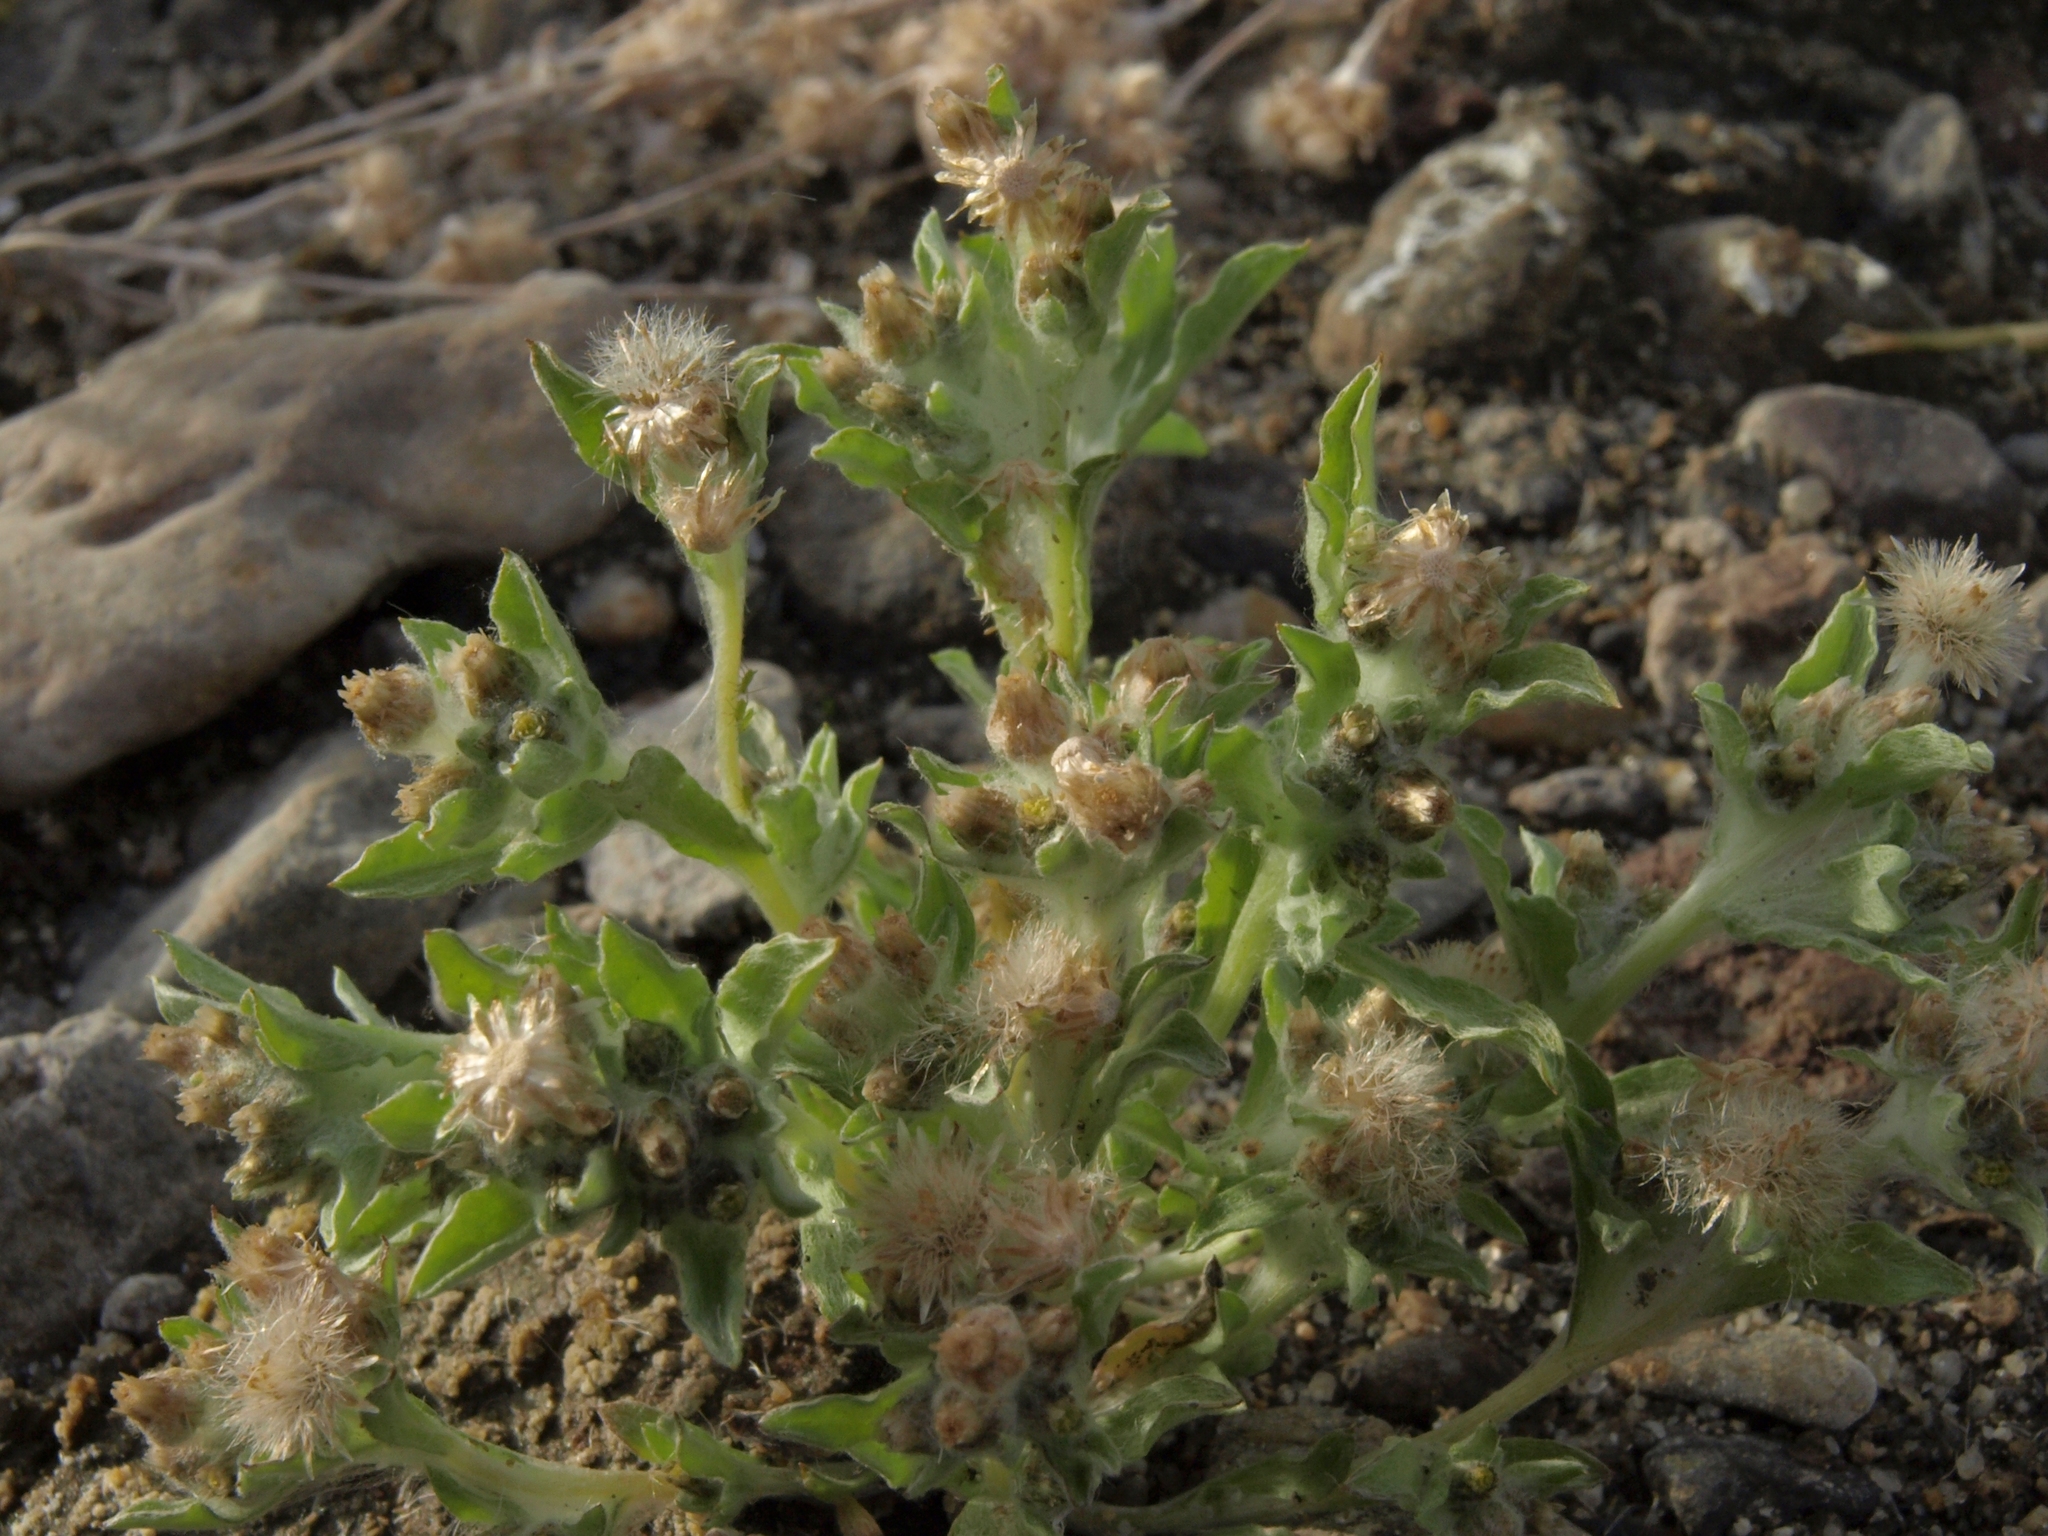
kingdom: Plantae
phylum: Tracheophyta
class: Magnoliopsida
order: Asterales
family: Asteraceae
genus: Gnaphalium
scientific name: Gnaphalium palustre
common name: Western marsh cudweed
